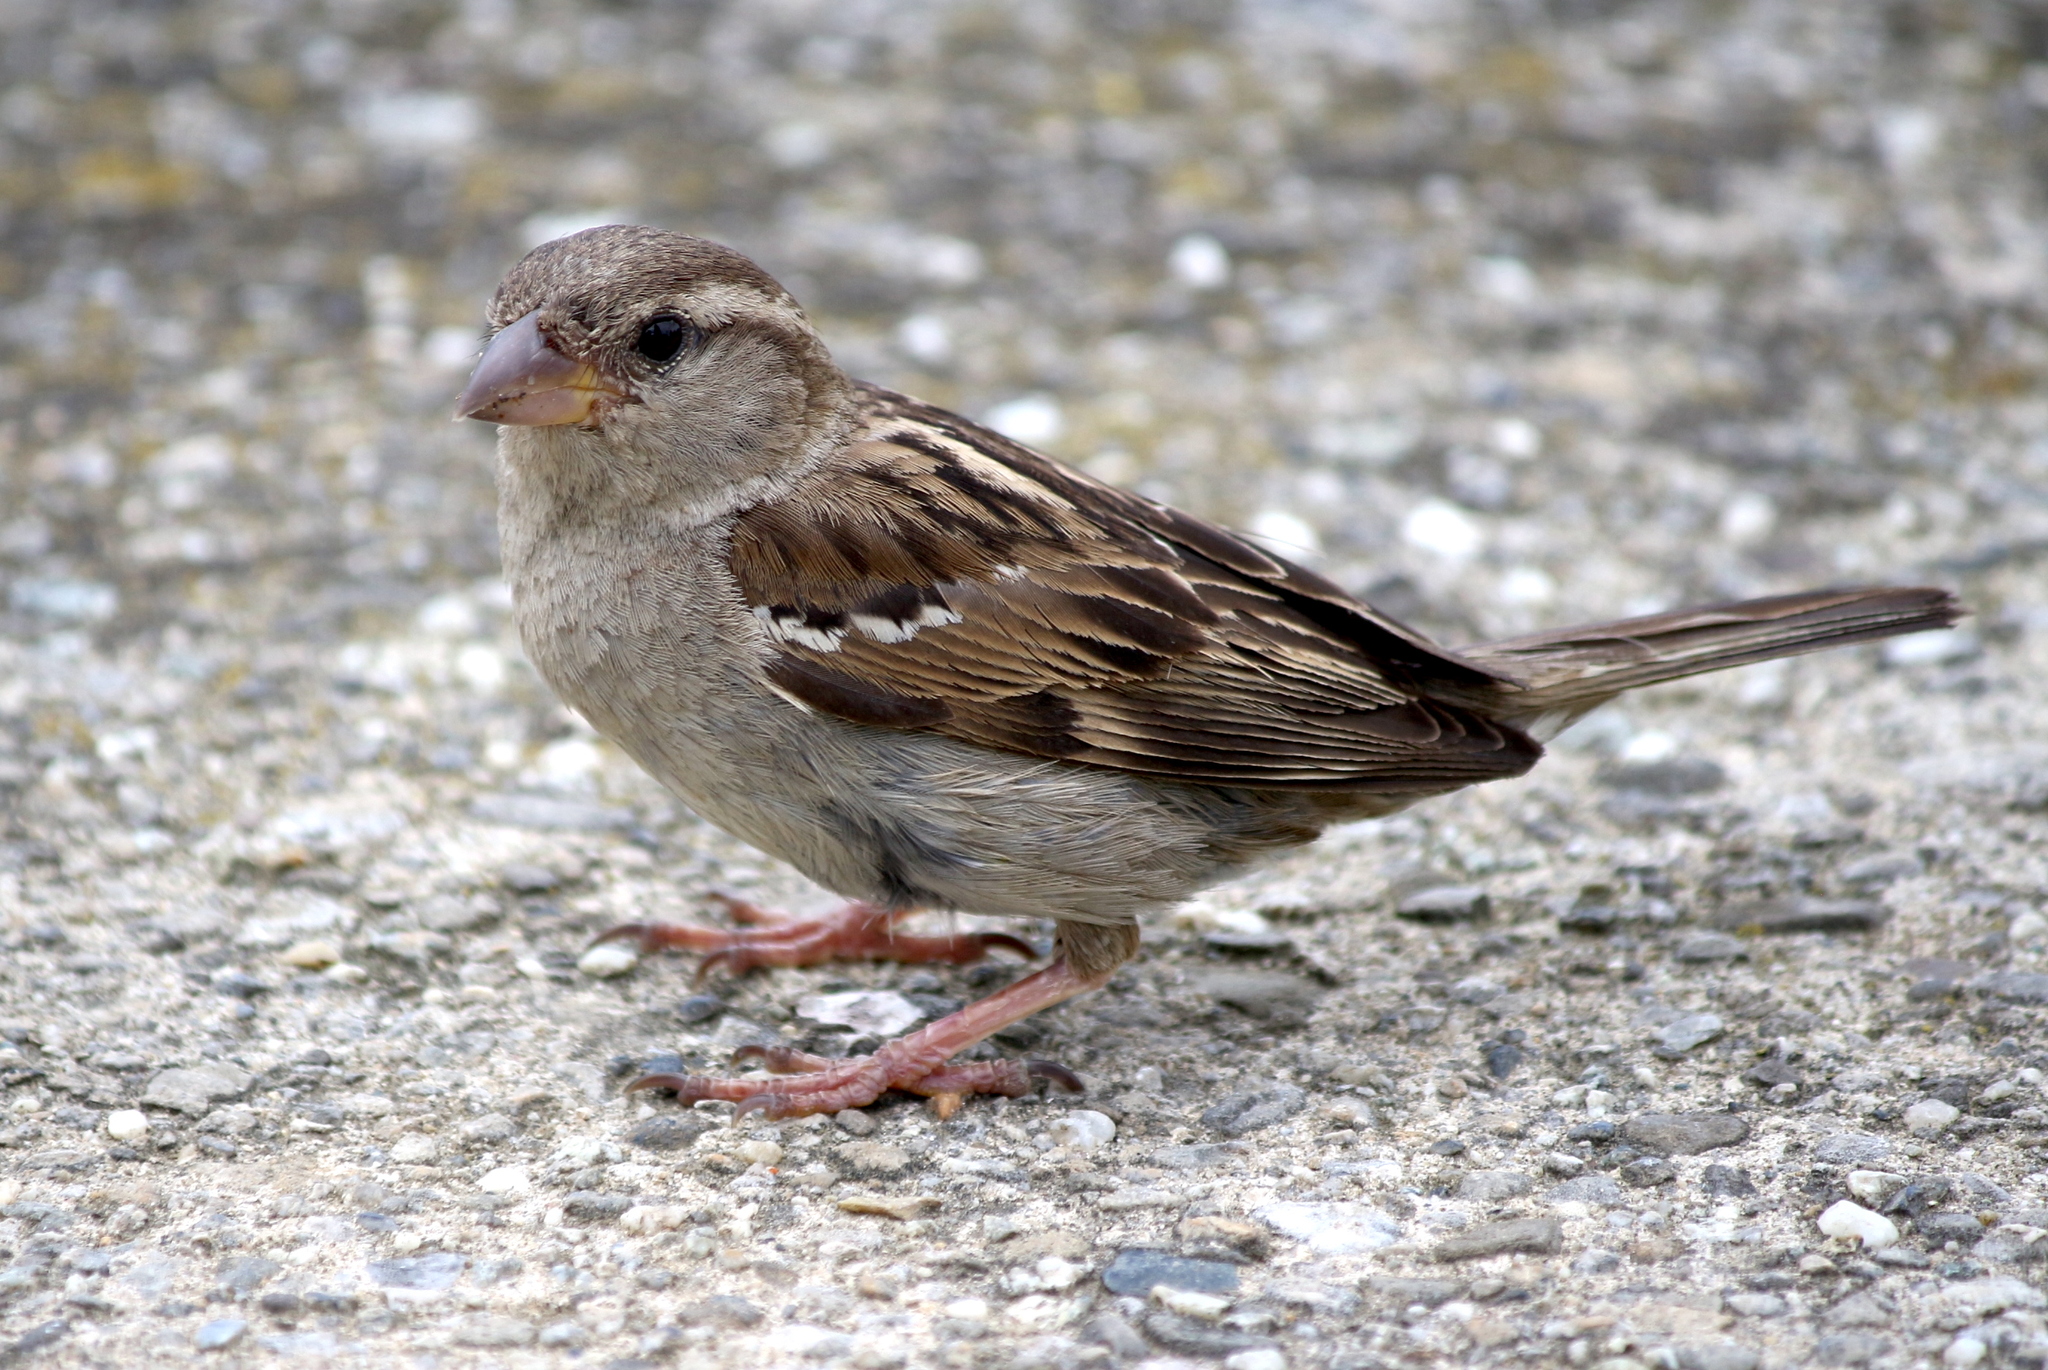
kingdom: Animalia
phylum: Chordata
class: Aves
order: Passeriformes
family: Passeridae
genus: Passer
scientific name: Passer domesticus
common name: House sparrow
